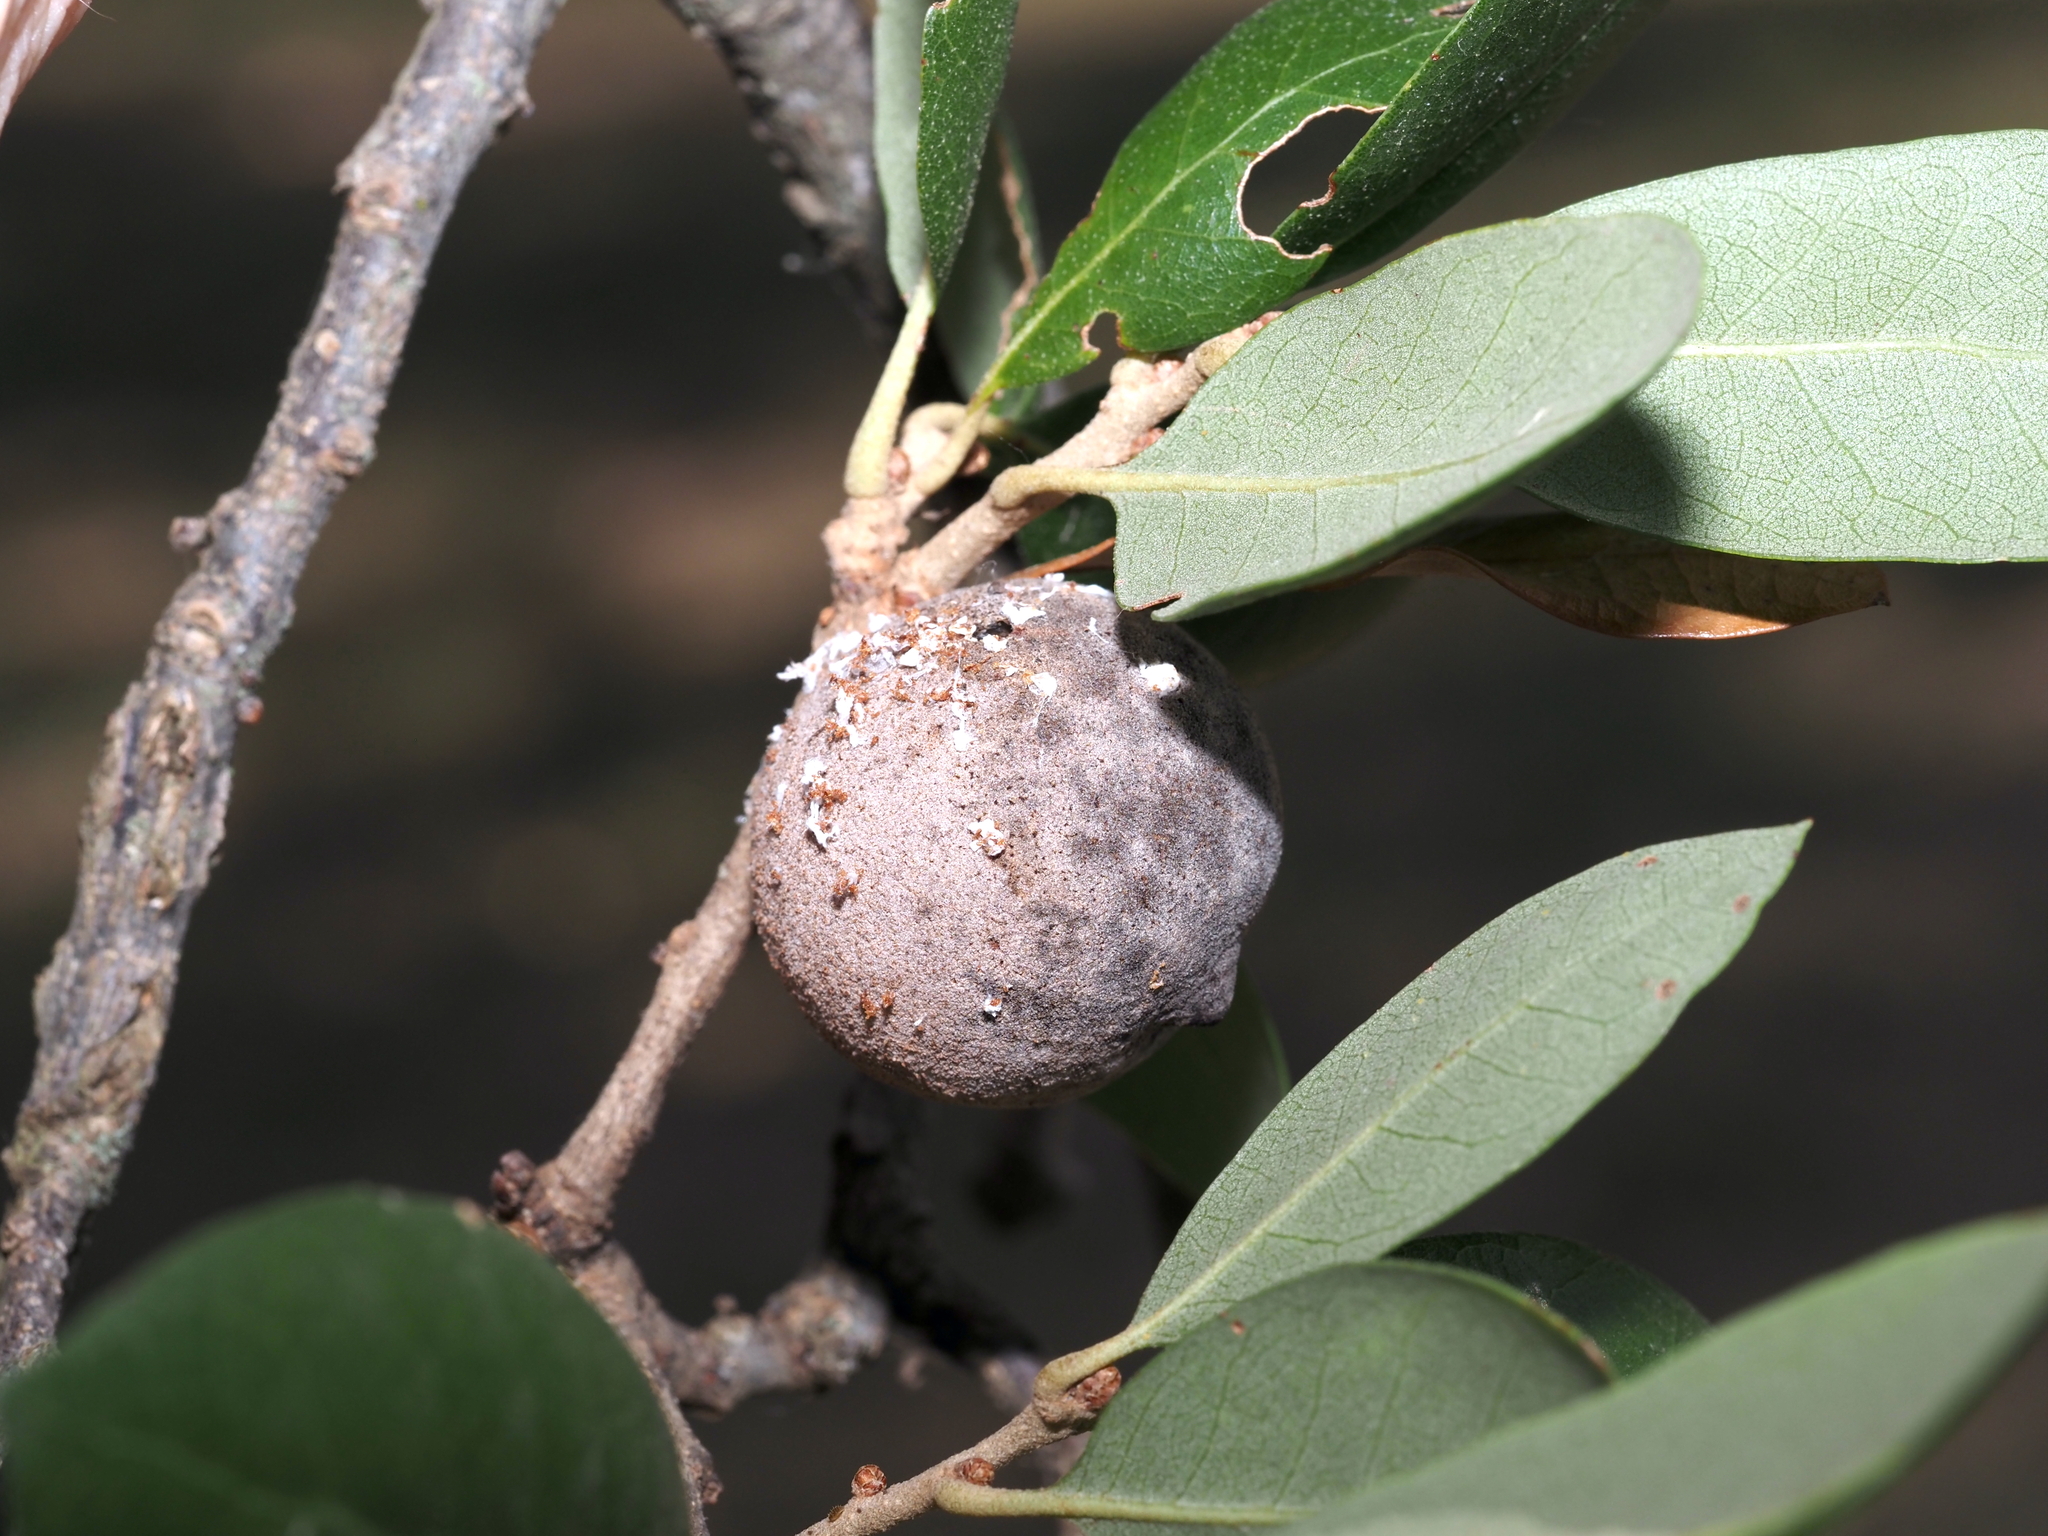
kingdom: Animalia
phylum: Arthropoda
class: Insecta
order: Hymenoptera
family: Cynipidae
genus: Disholcaspis
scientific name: Disholcaspis
